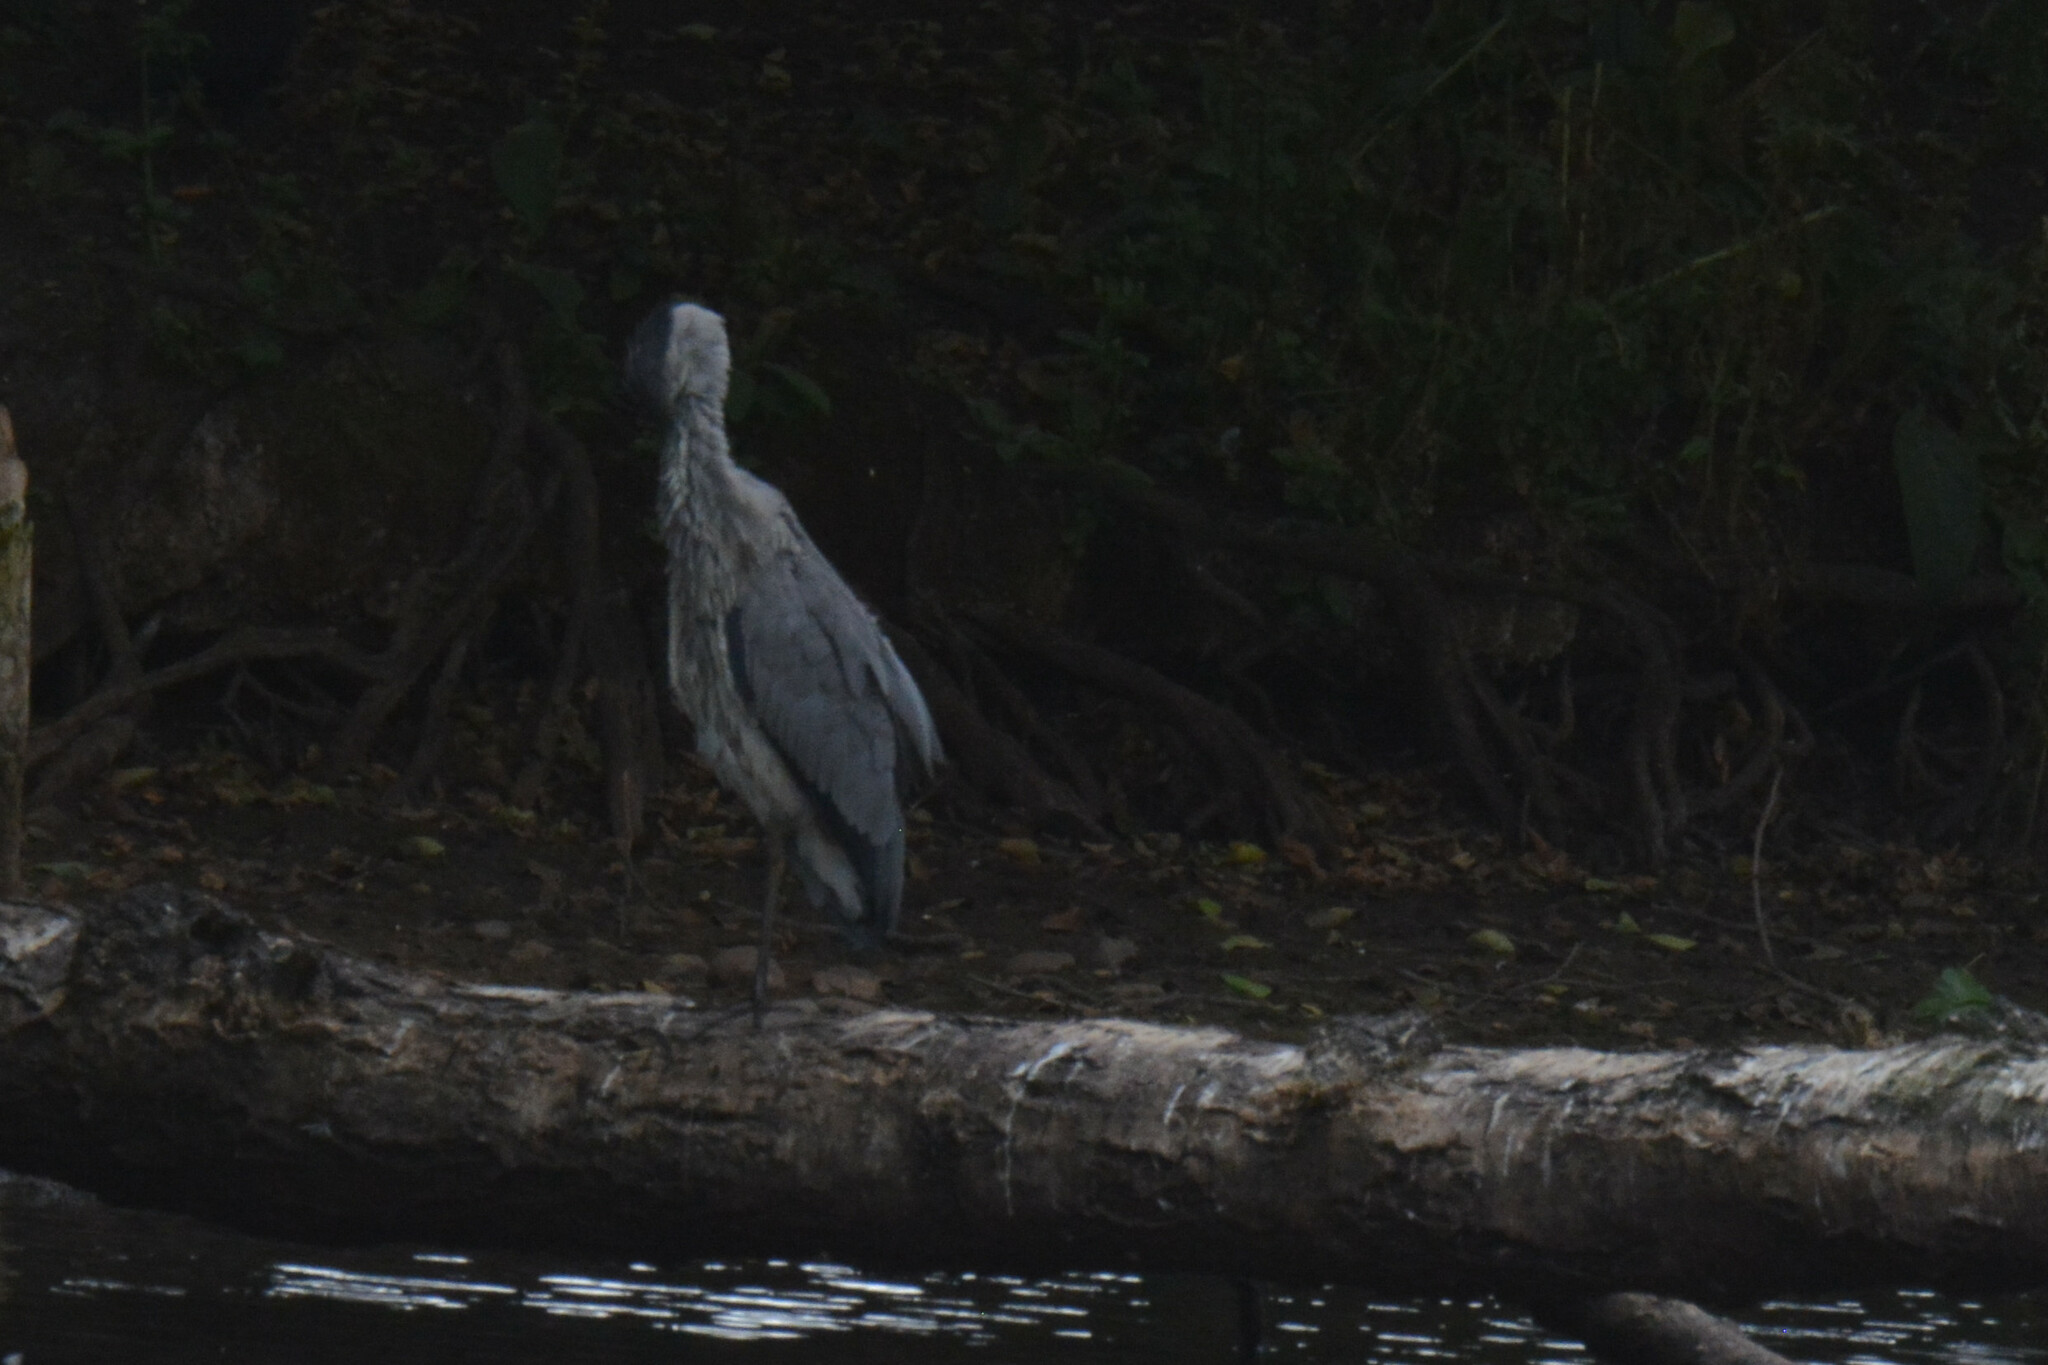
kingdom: Animalia
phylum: Chordata
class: Aves
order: Pelecaniformes
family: Ardeidae
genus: Ardea
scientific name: Ardea cinerea
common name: Grey heron
